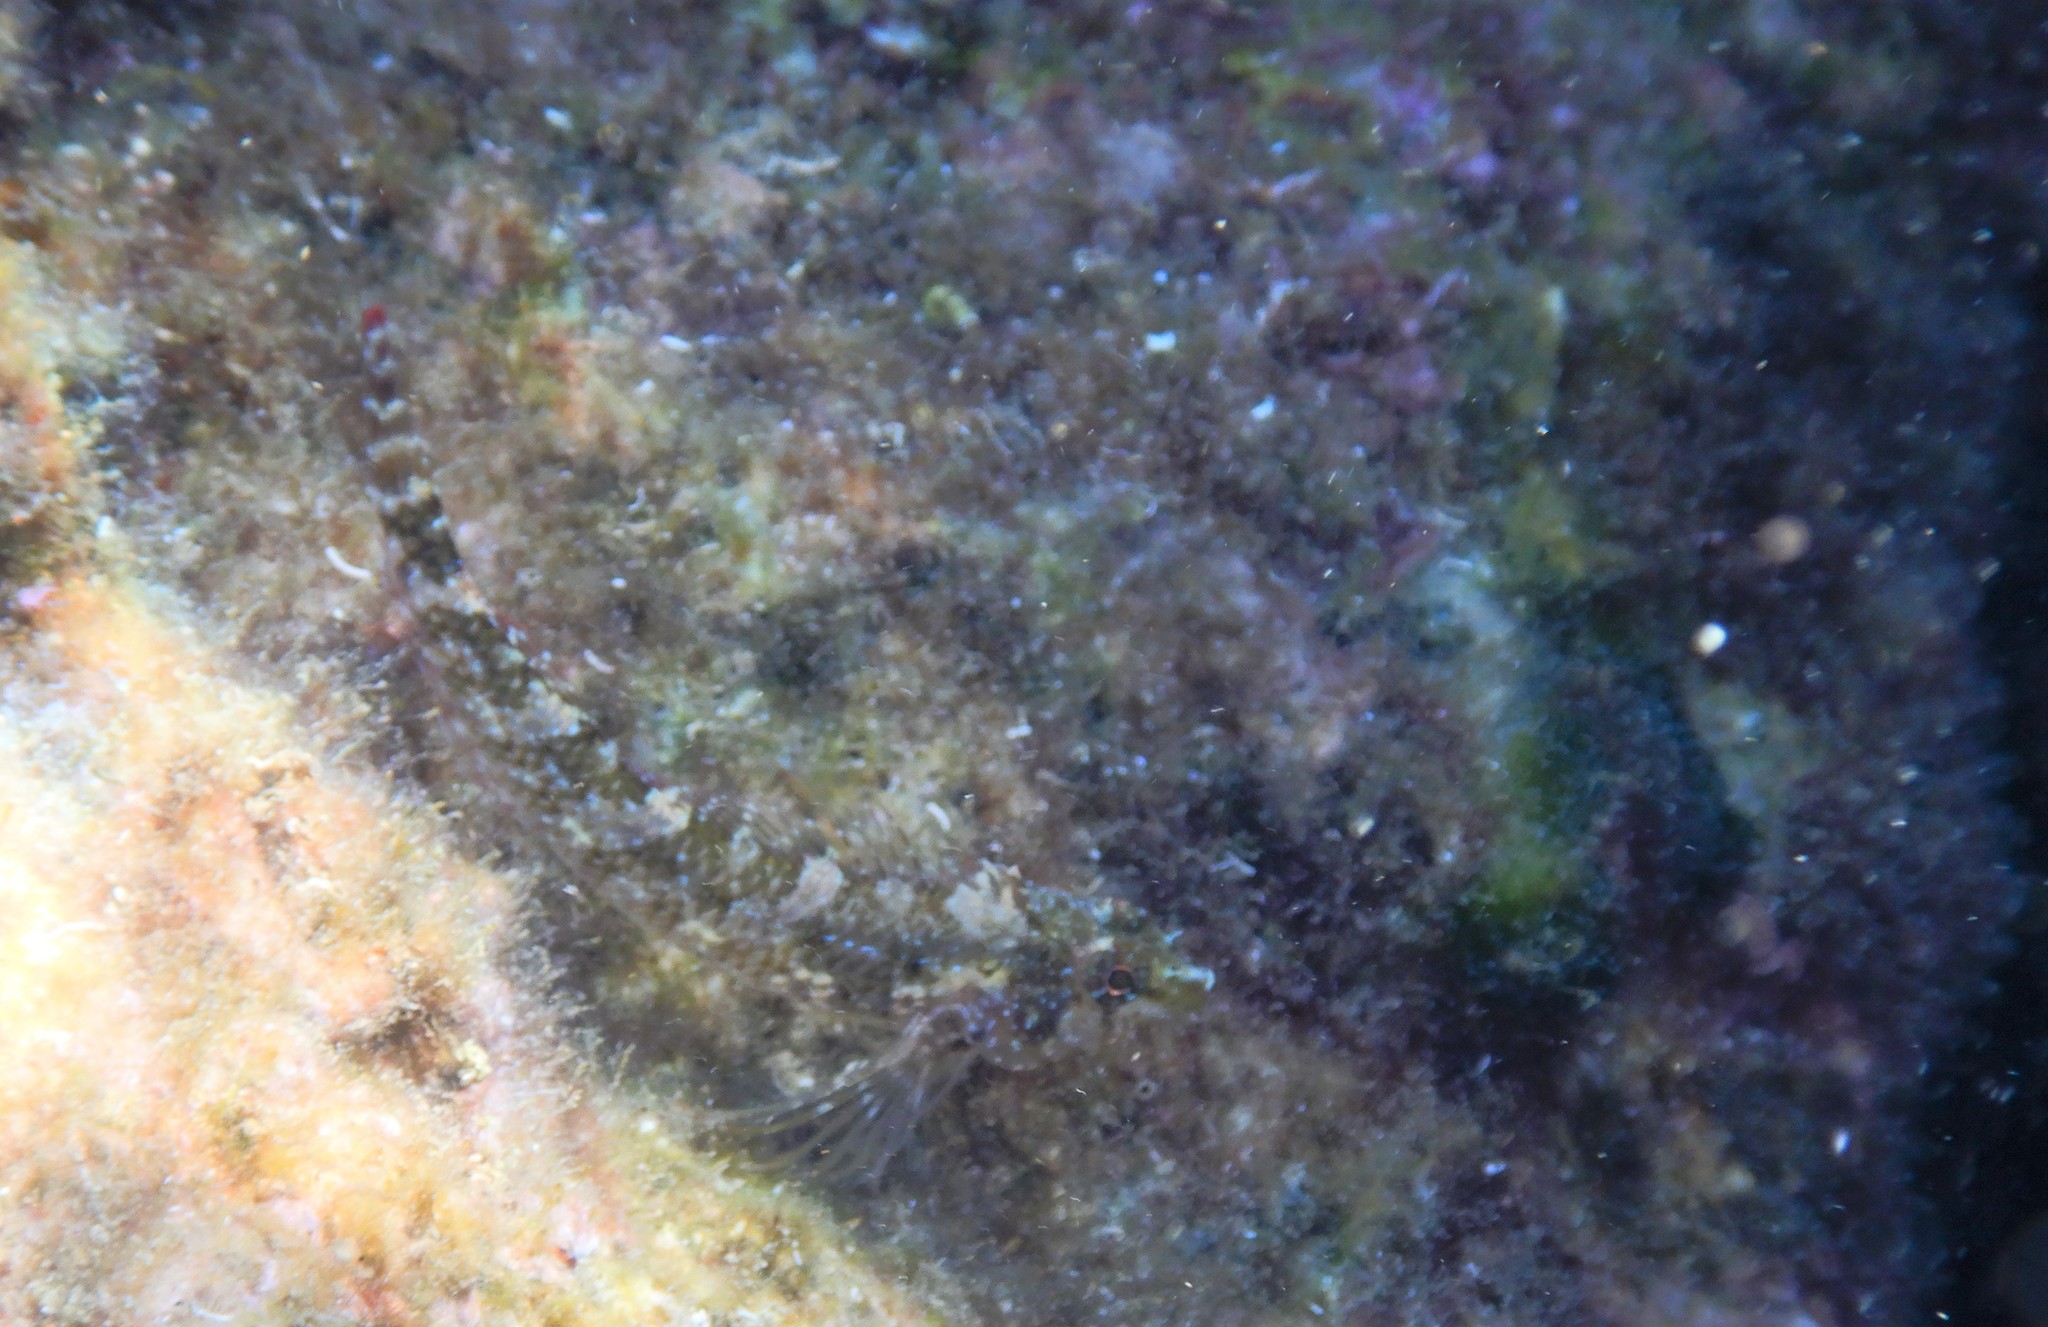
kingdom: Animalia
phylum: Chordata
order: Perciformes
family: Tripterygiidae
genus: Tripterygion
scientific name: Tripterygion tripteronotum
